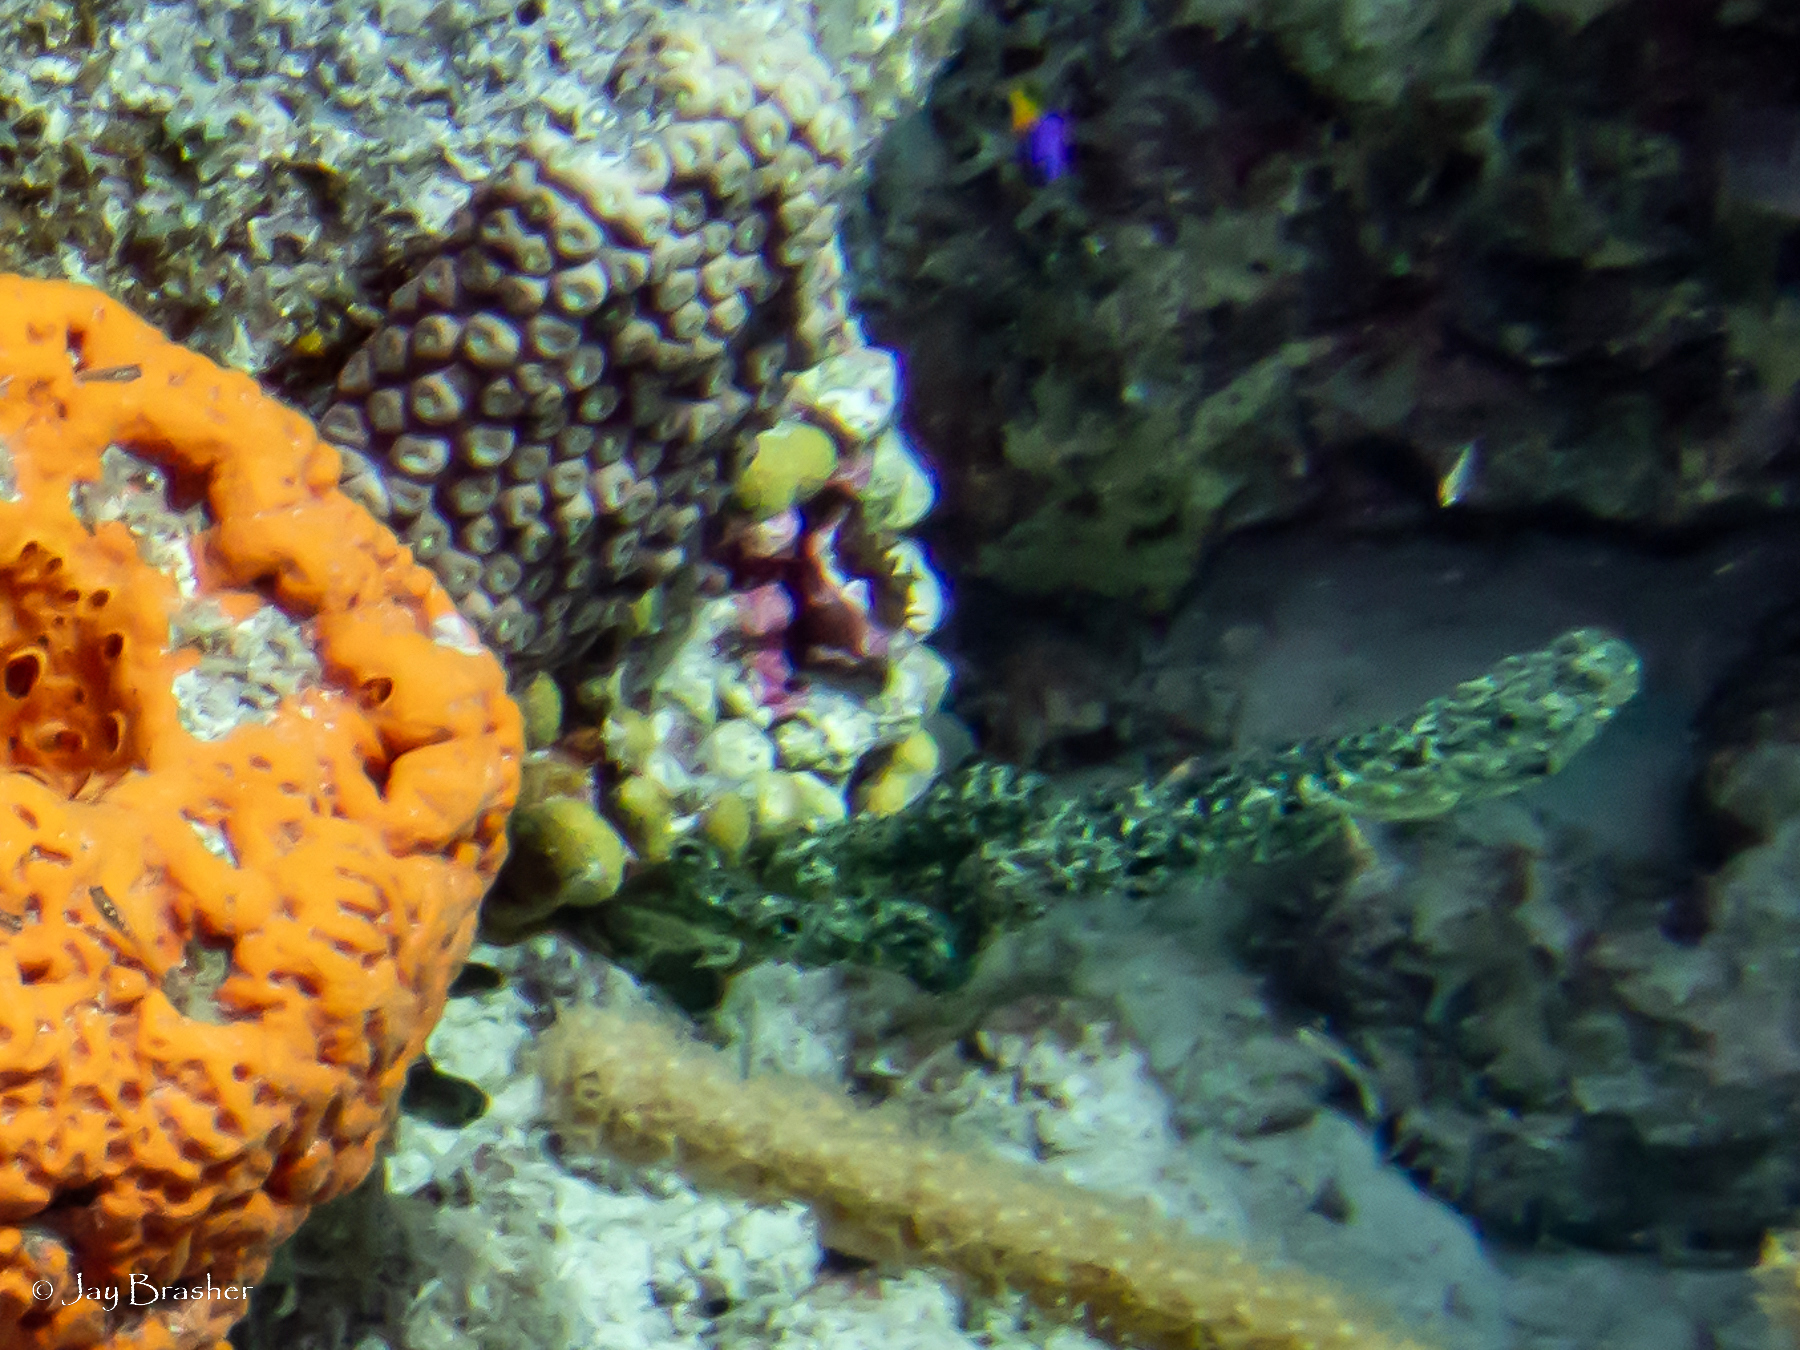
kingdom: Animalia
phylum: Porifera
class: Demospongiae
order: Poecilosclerida
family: Iotrochotidae
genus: Iotrochota
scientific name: Iotrochota birotulata
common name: Purple bleeding sponge
